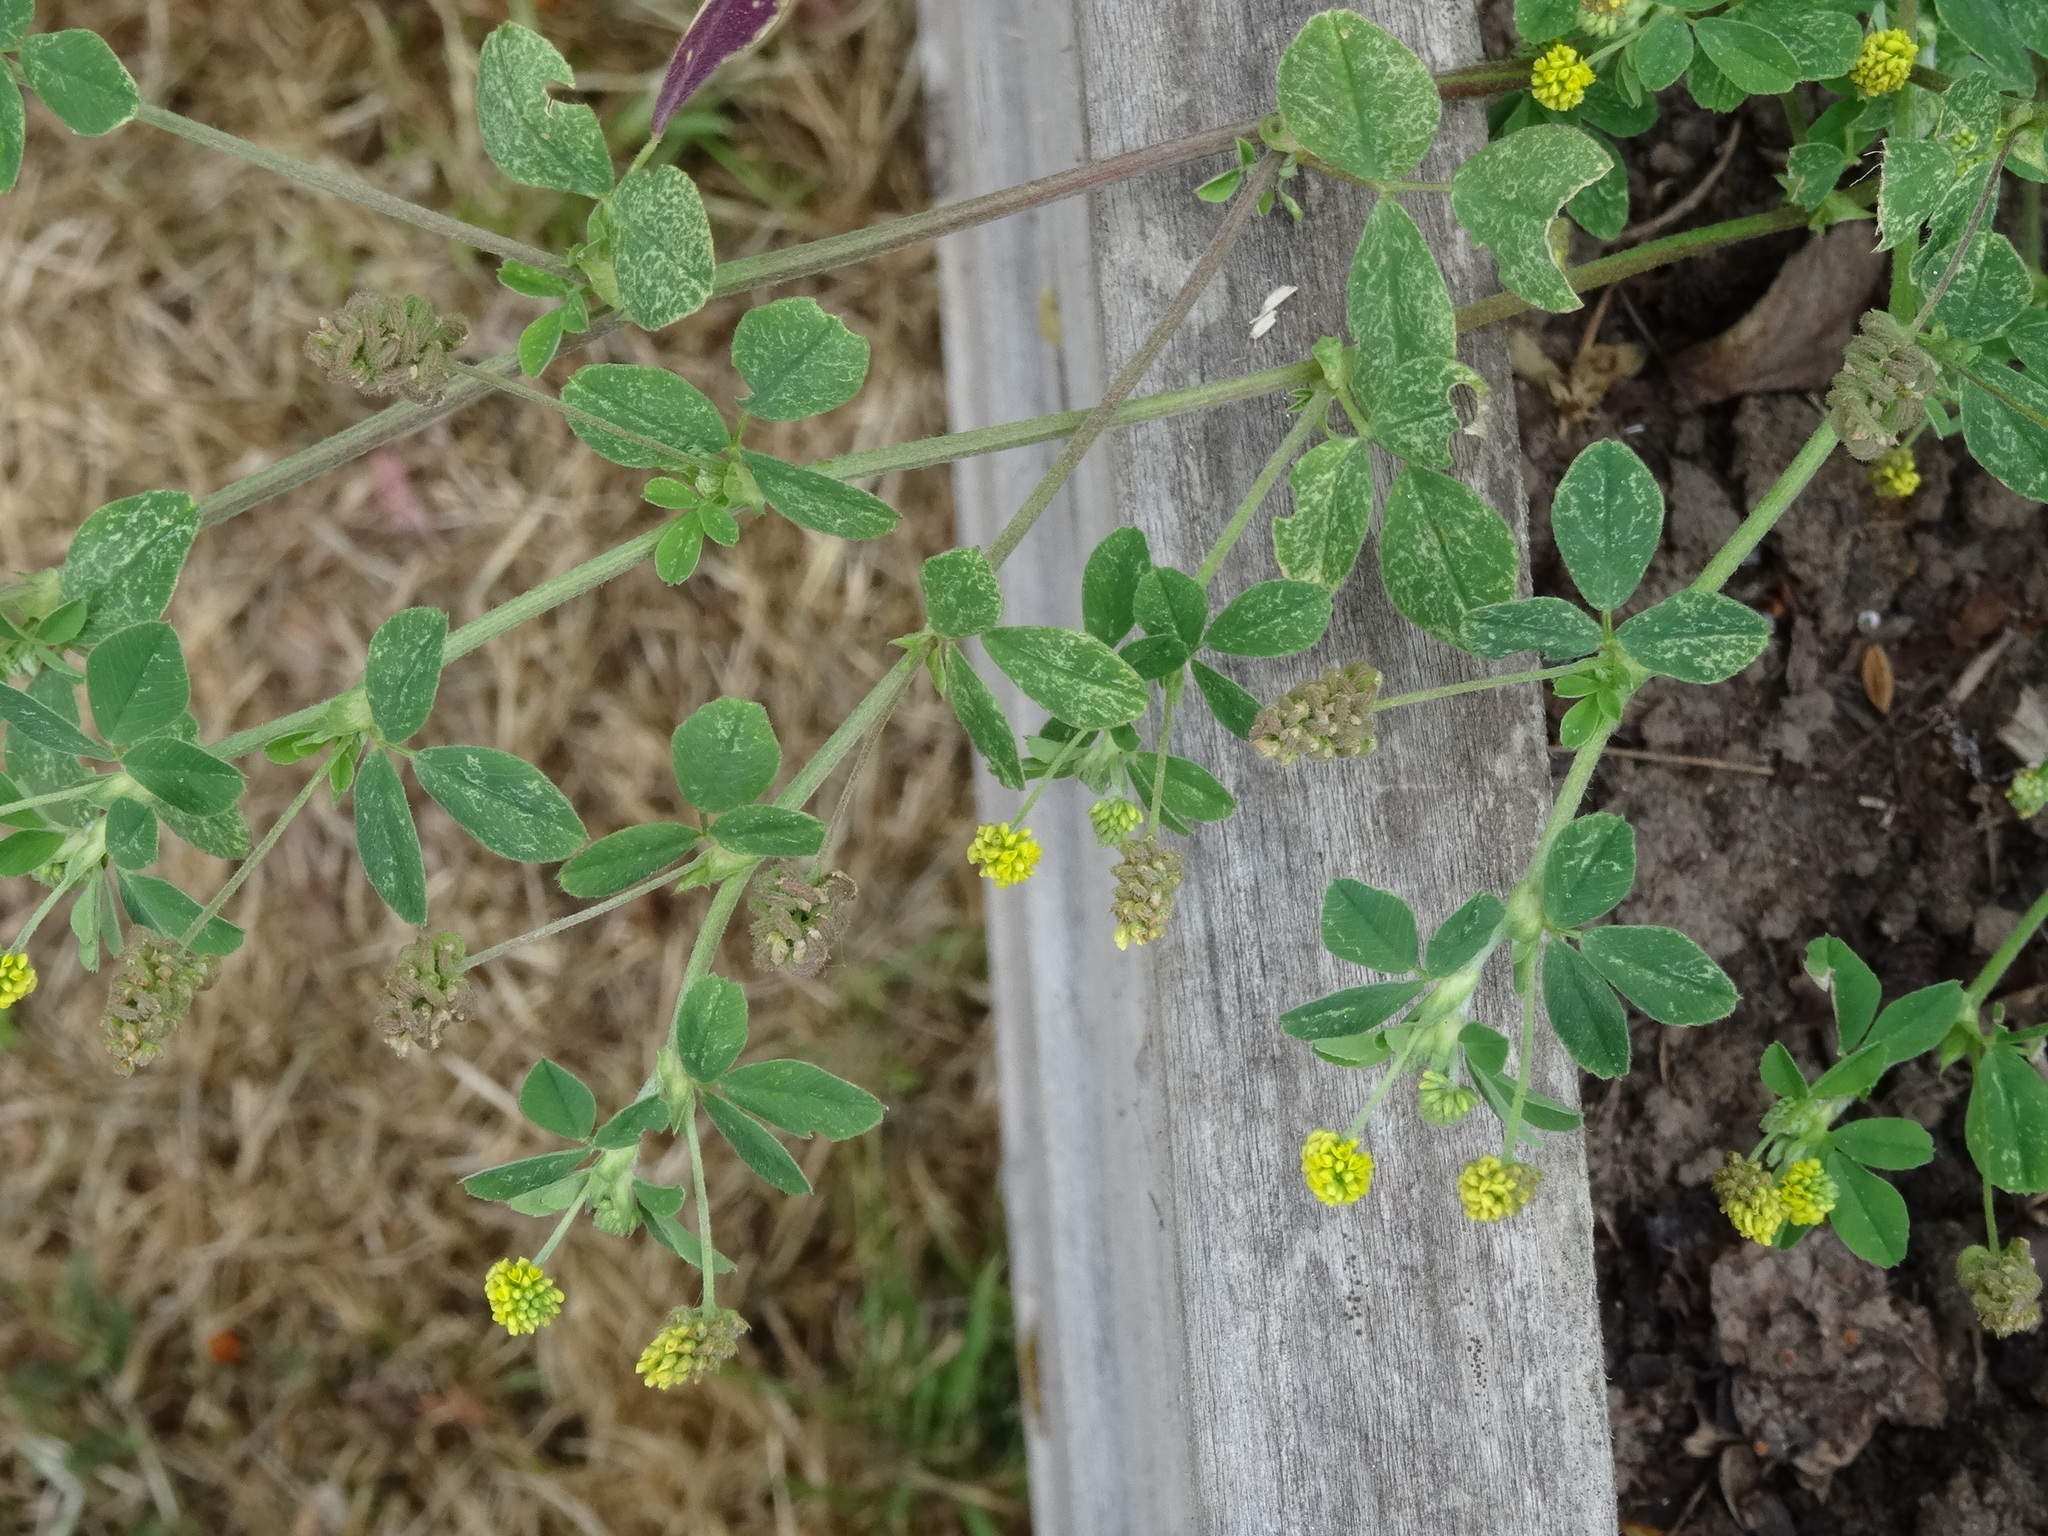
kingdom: Plantae
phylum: Tracheophyta
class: Magnoliopsida
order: Fabales
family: Fabaceae
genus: Medicago
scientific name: Medicago lupulina
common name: Black medick
